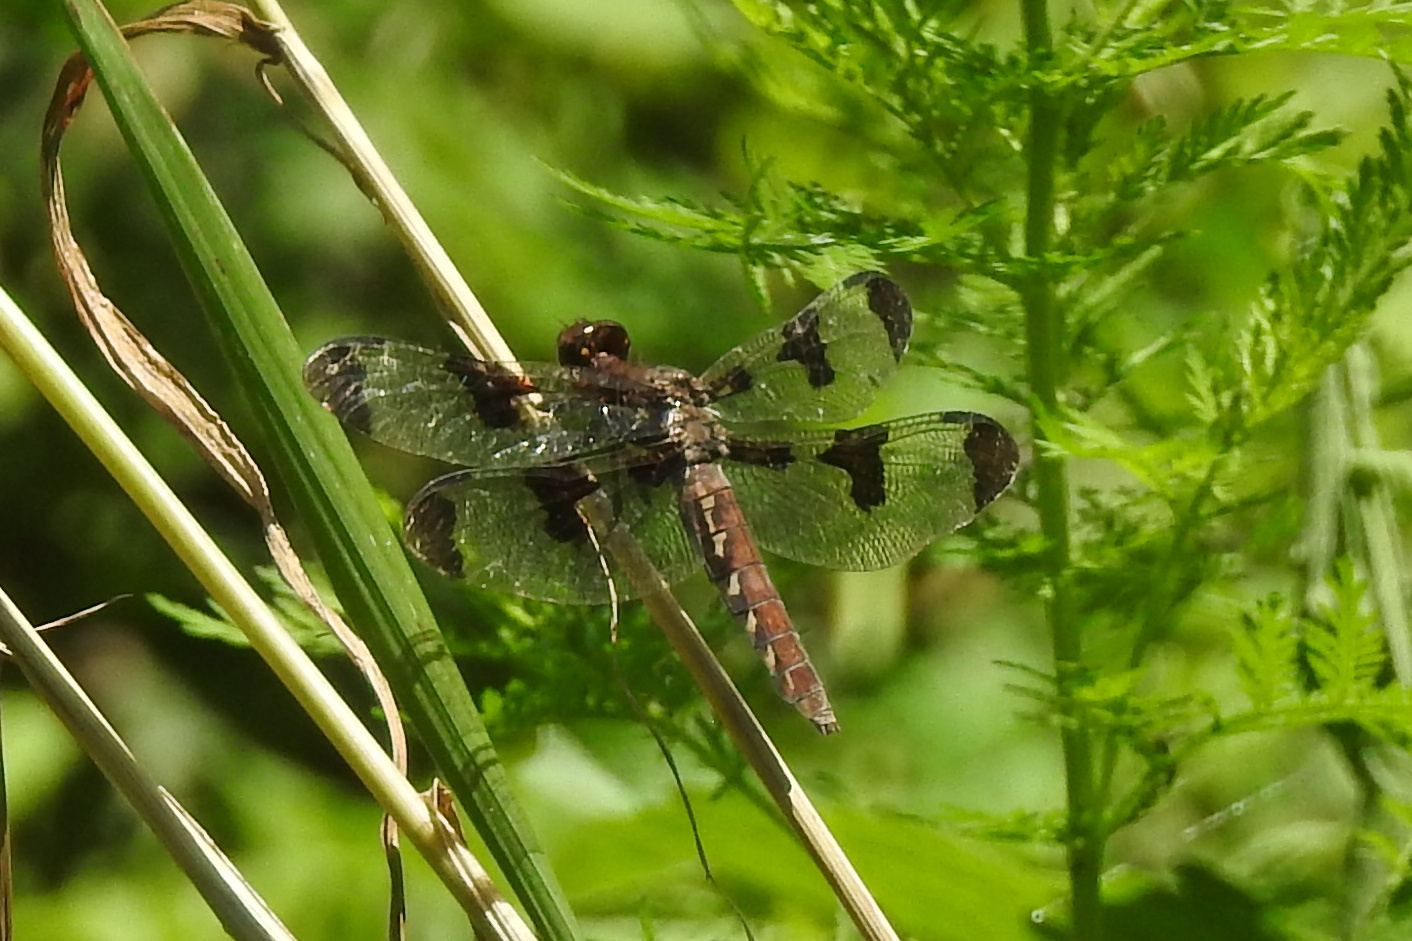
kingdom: Animalia
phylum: Arthropoda
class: Insecta
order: Odonata
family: Libellulidae
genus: Plathemis
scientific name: Plathemis lydia
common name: Common whitetail
